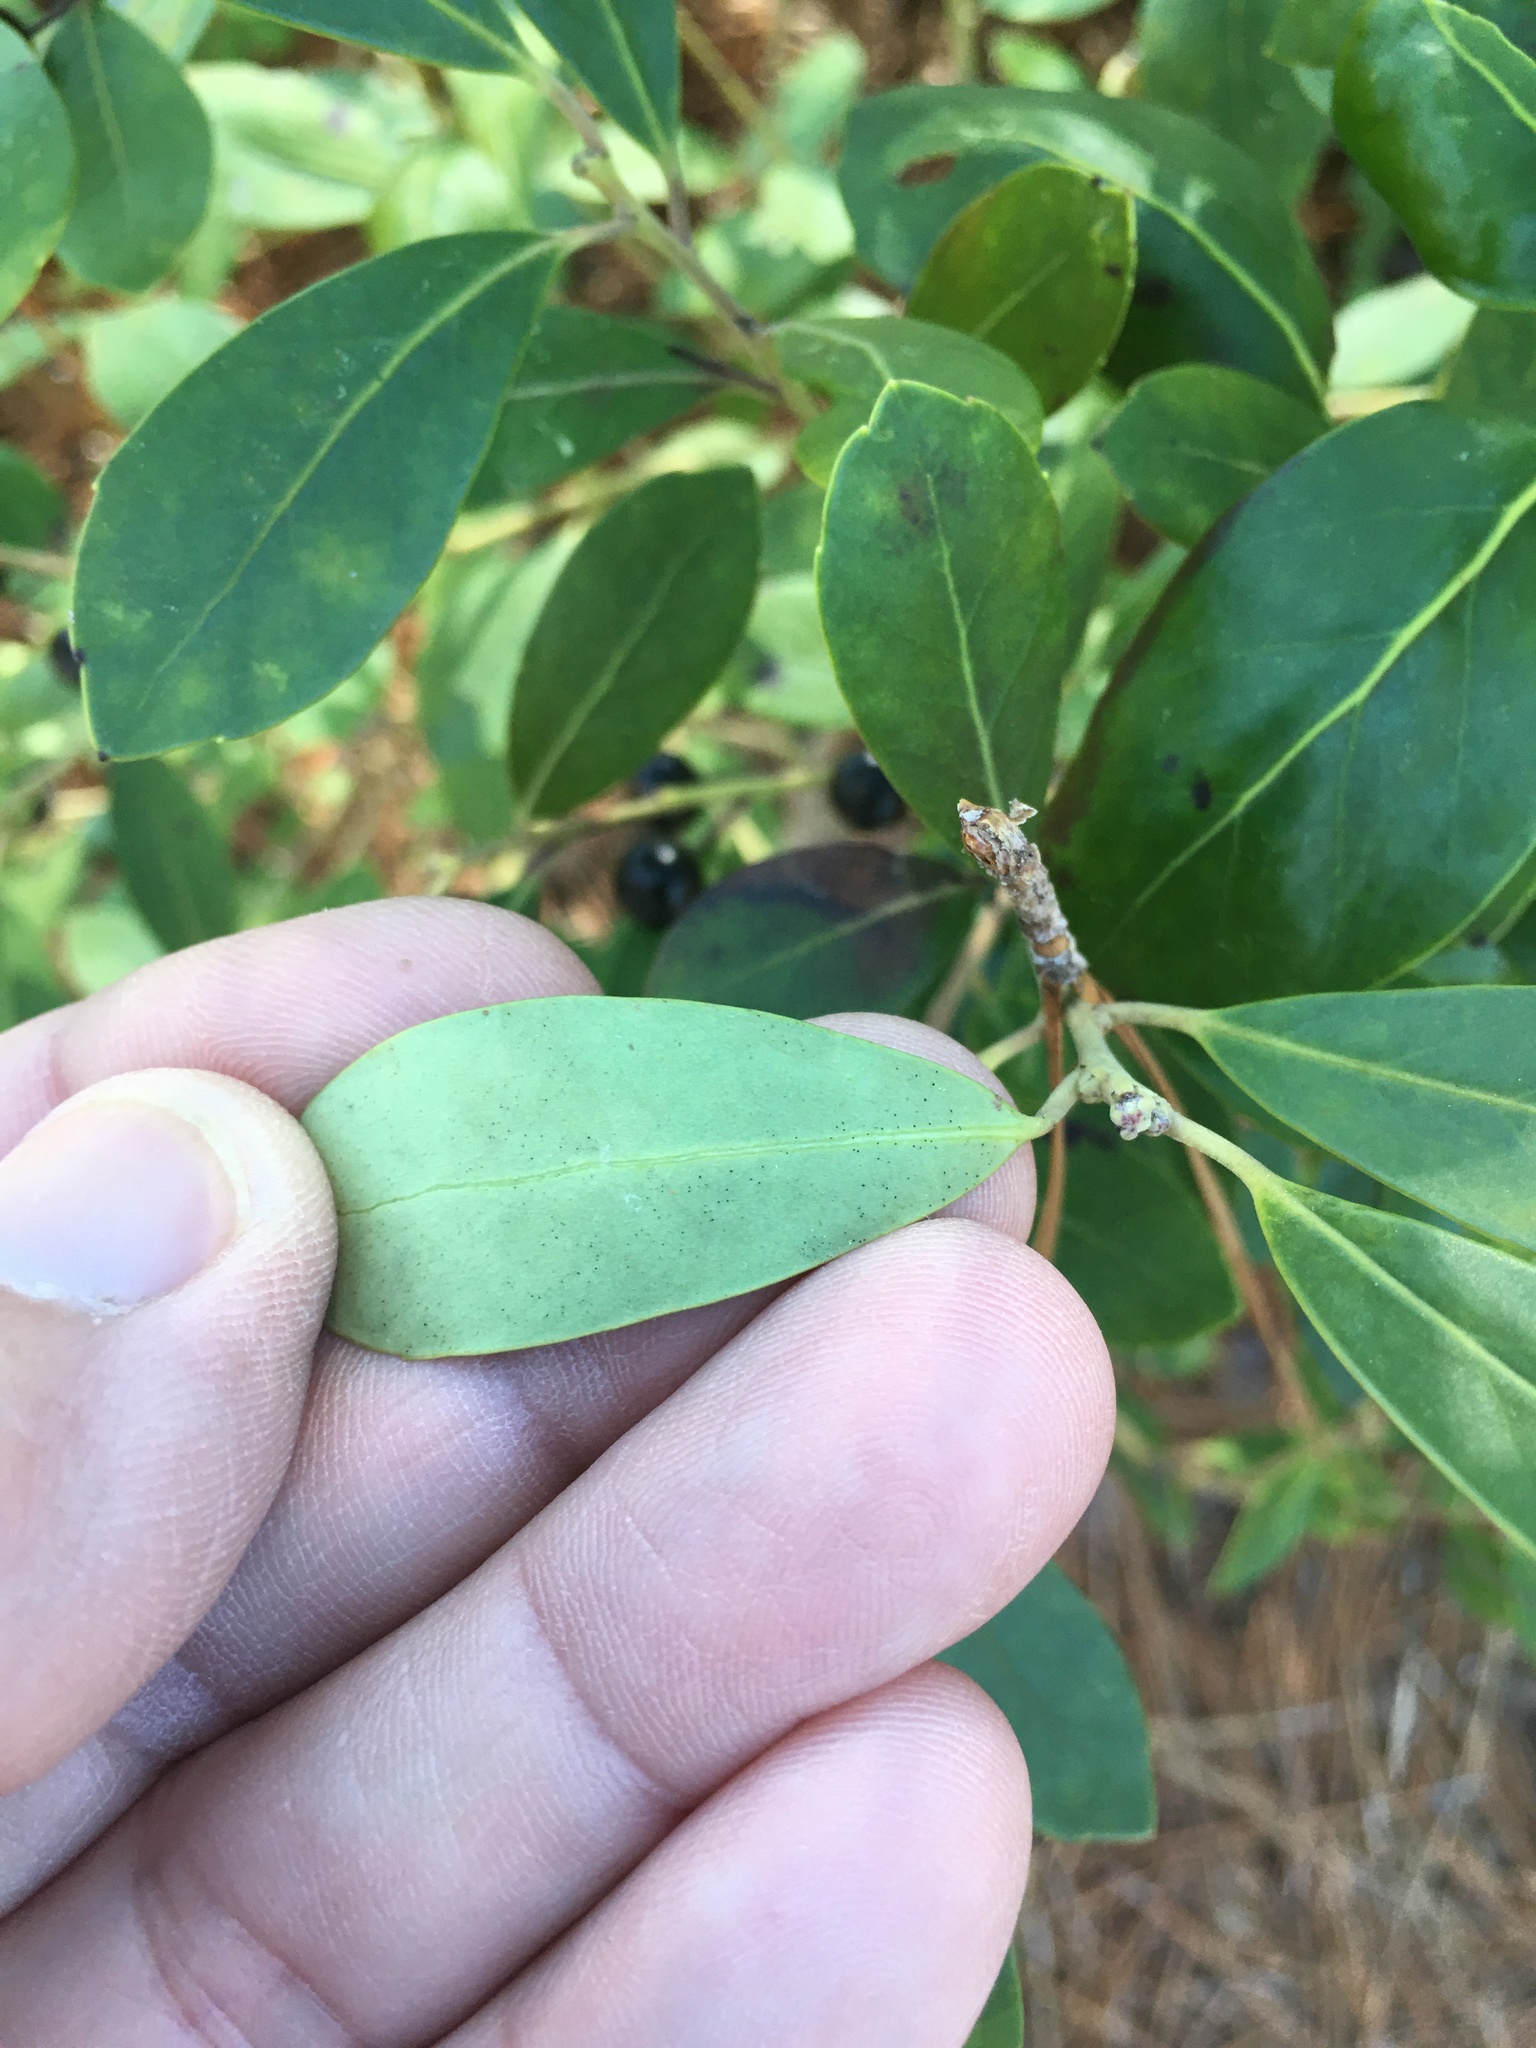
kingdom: Plantae
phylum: Tracheophyta
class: Magnoliopsida
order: Aquifoliales
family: Aquifoliaceae
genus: Ilex
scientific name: Ilex glabra
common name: Bitter gallberry
